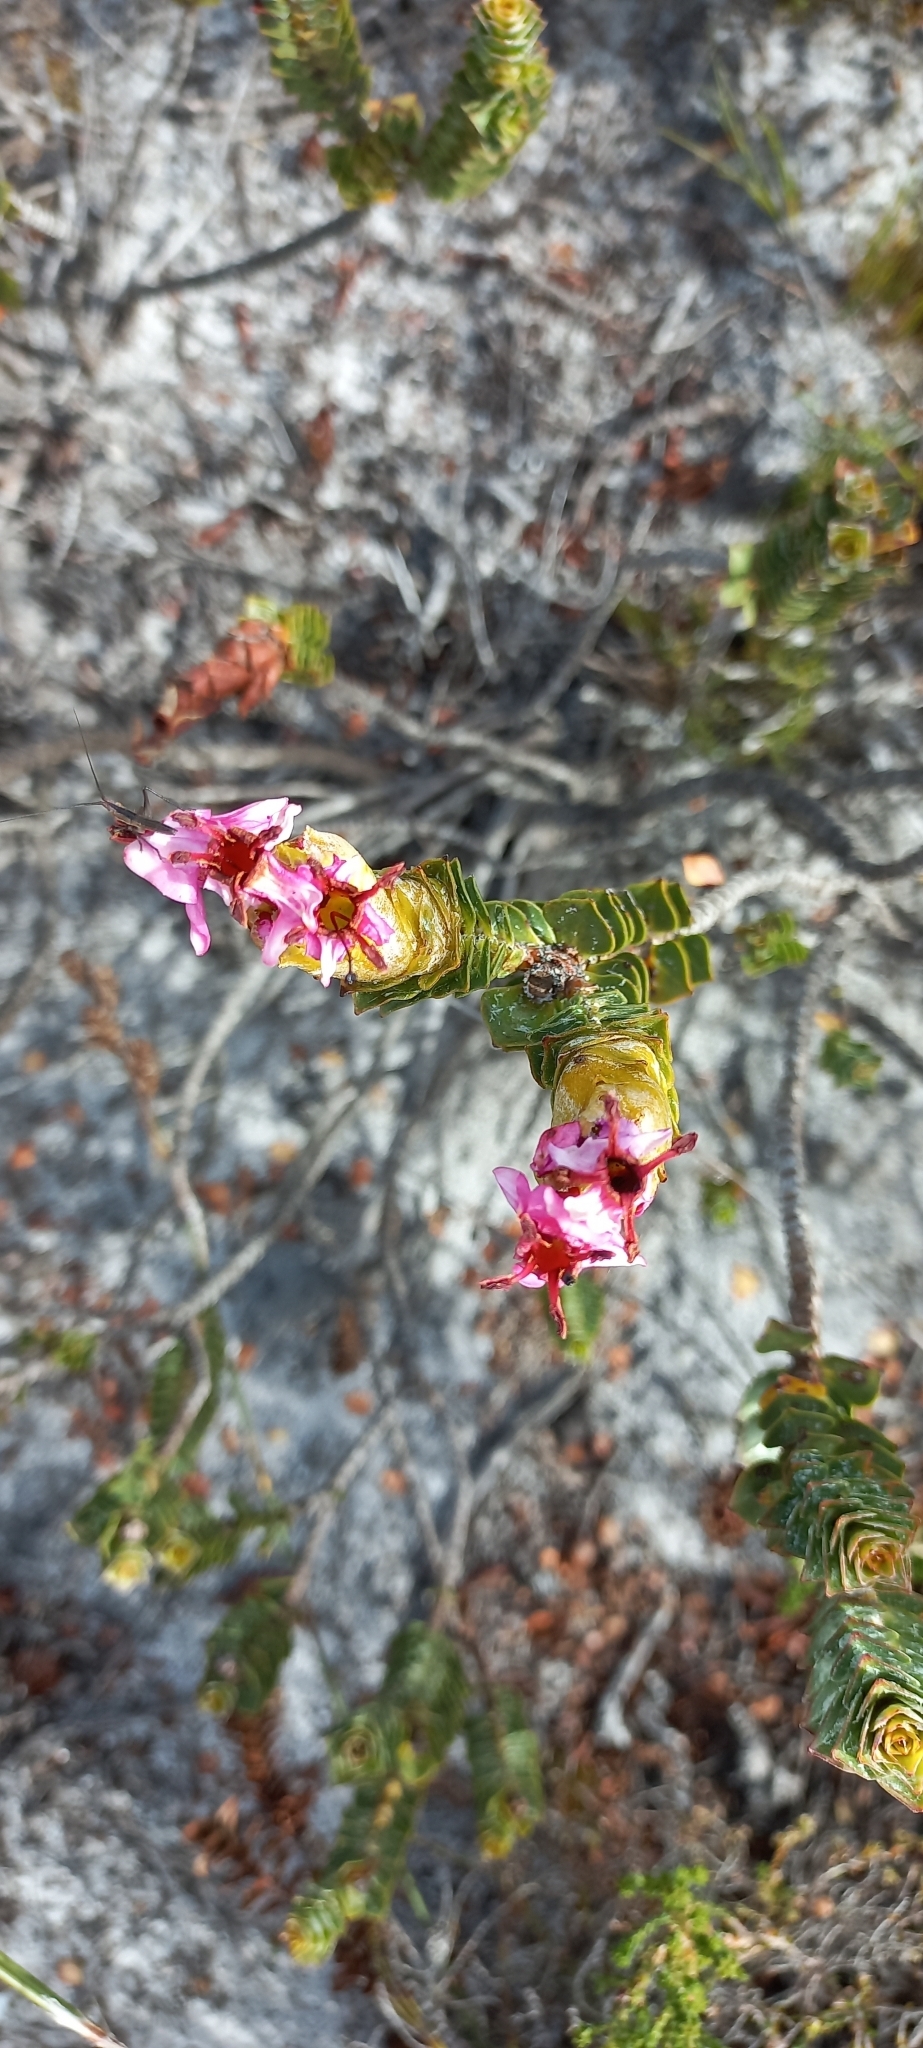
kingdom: Plantae
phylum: Tracheophyta
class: Magnoliopsida
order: Myrtales
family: Penaeaceae
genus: Saltera
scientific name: Saltera sarcocolla
